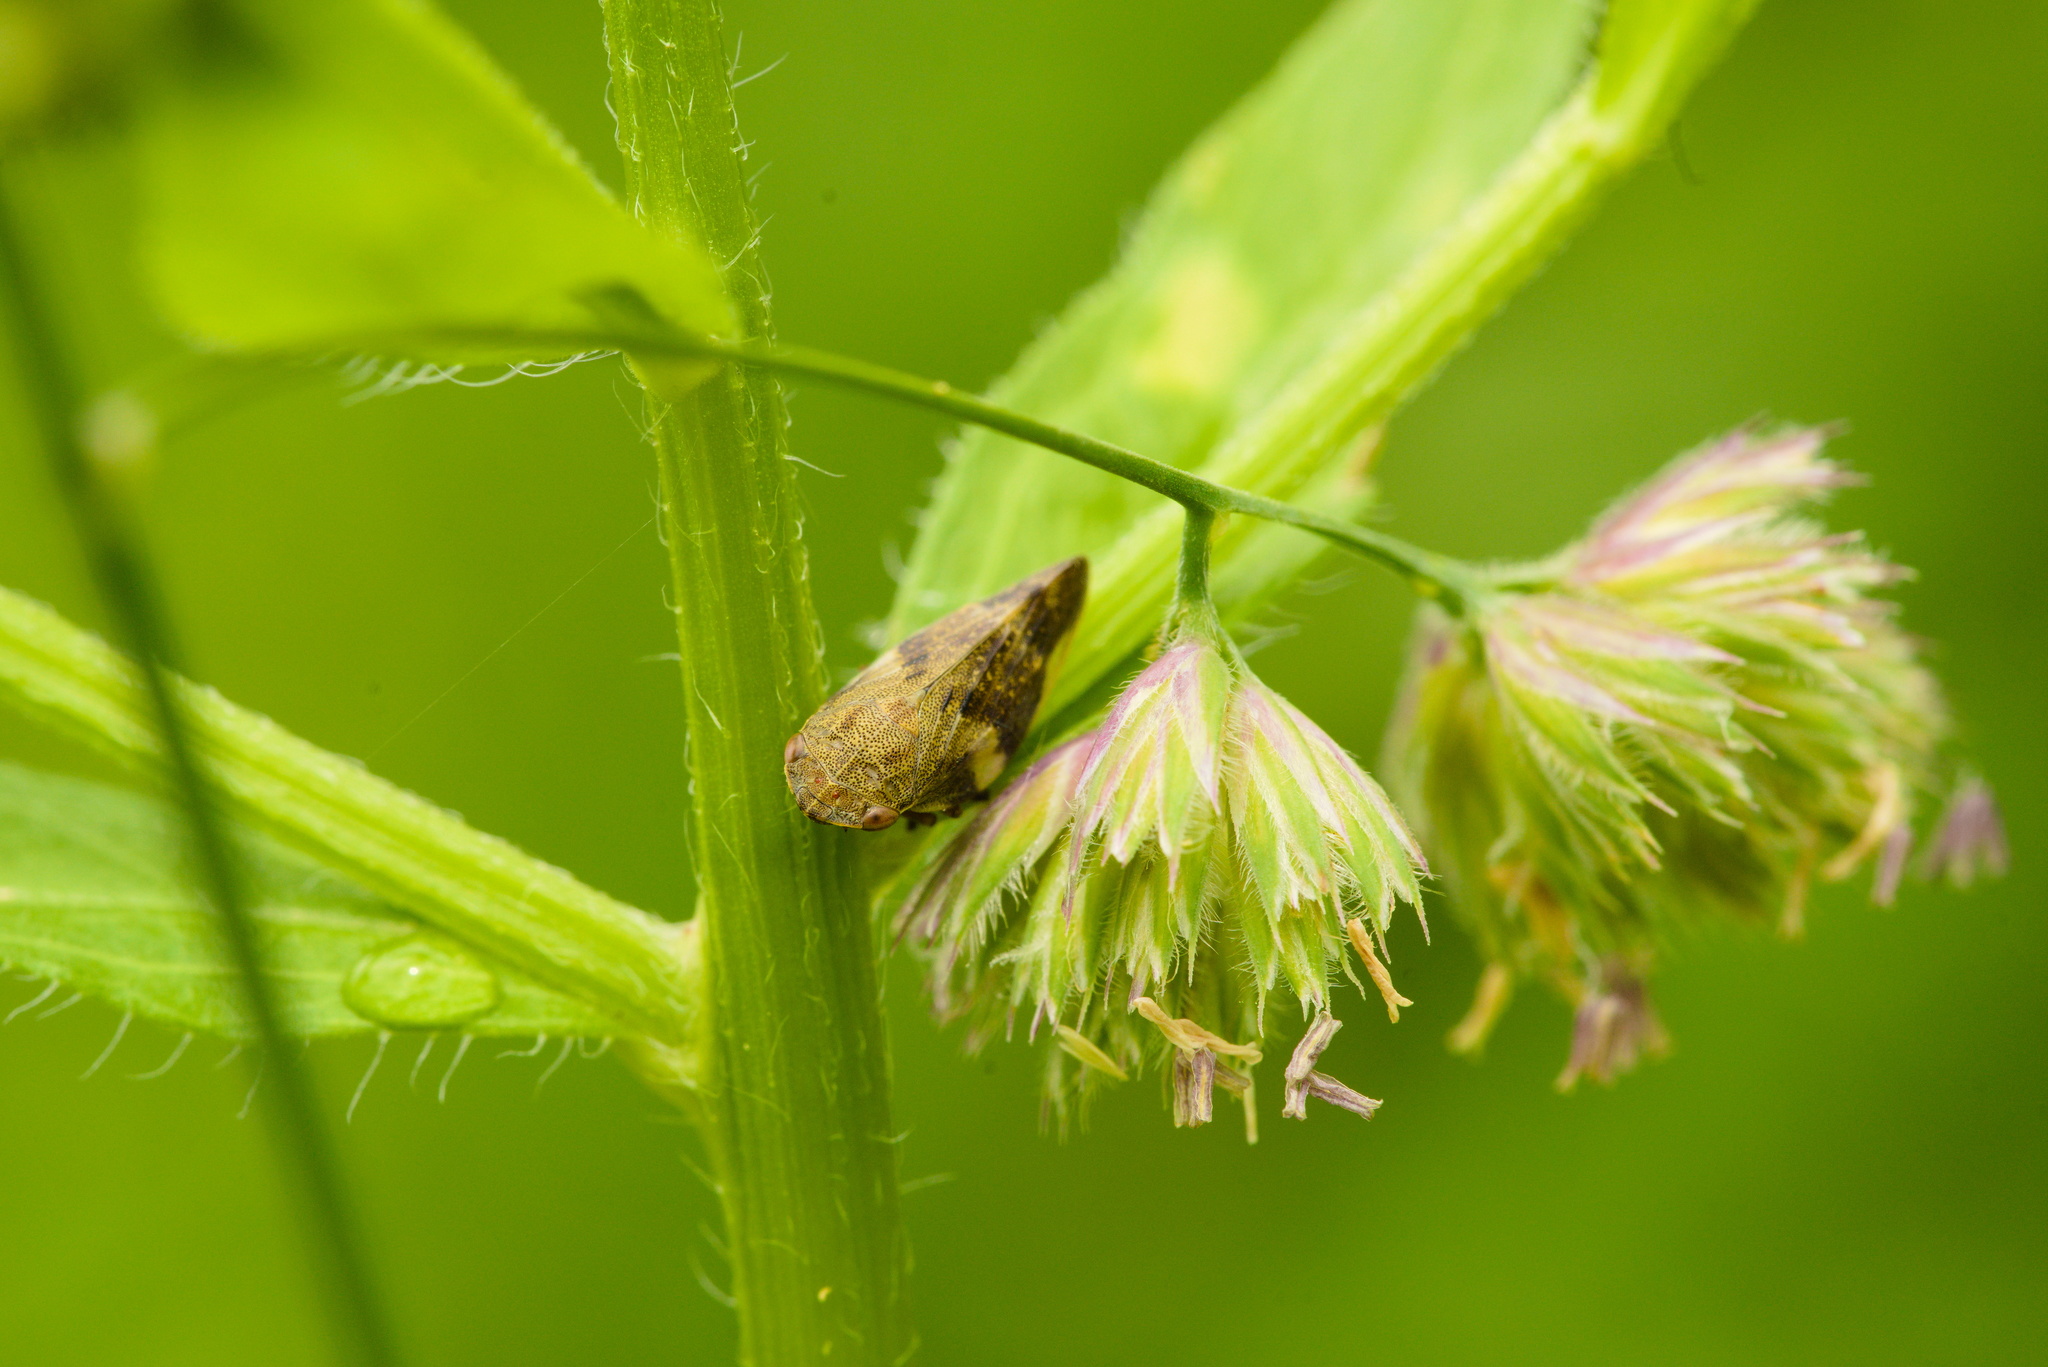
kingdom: Animalia
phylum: Arthropoda
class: Insecta
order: Hemiptera
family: Aphrophoridae
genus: Aphrophora
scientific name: Aphrophora alni
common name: European alder spittlebug
